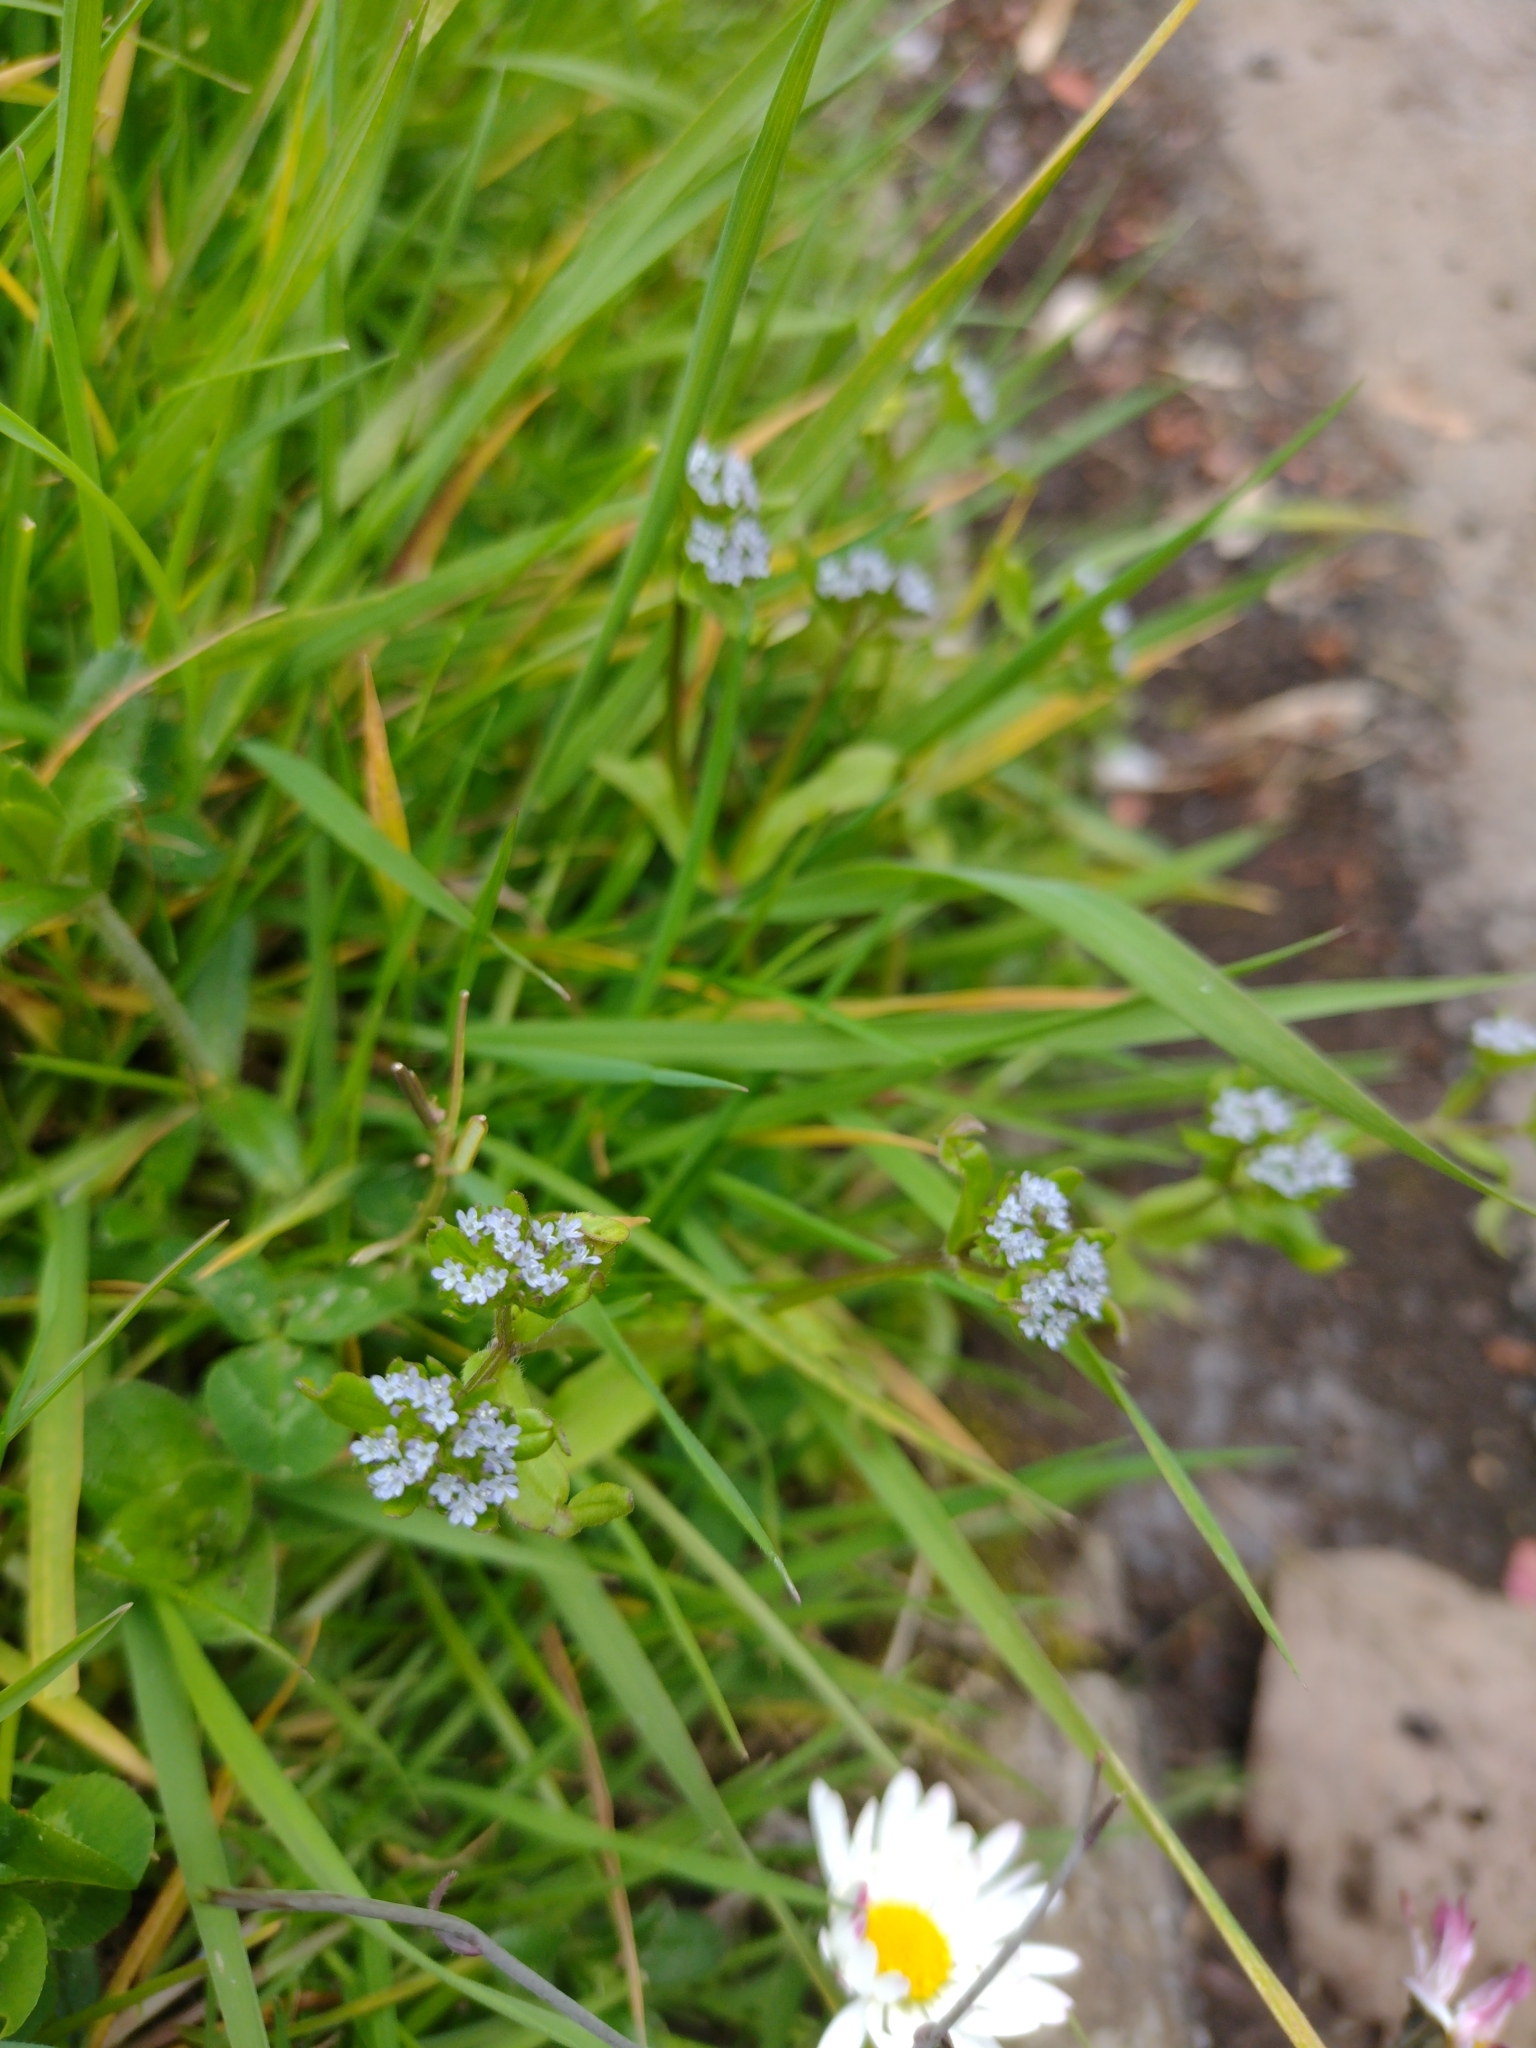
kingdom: Plantae
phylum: Tracheophyta
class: Magnoliopsida
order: Dipsacales
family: Caprifoliaceae
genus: Valerianella
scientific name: Valerianella locusta
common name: Common cornsalad
